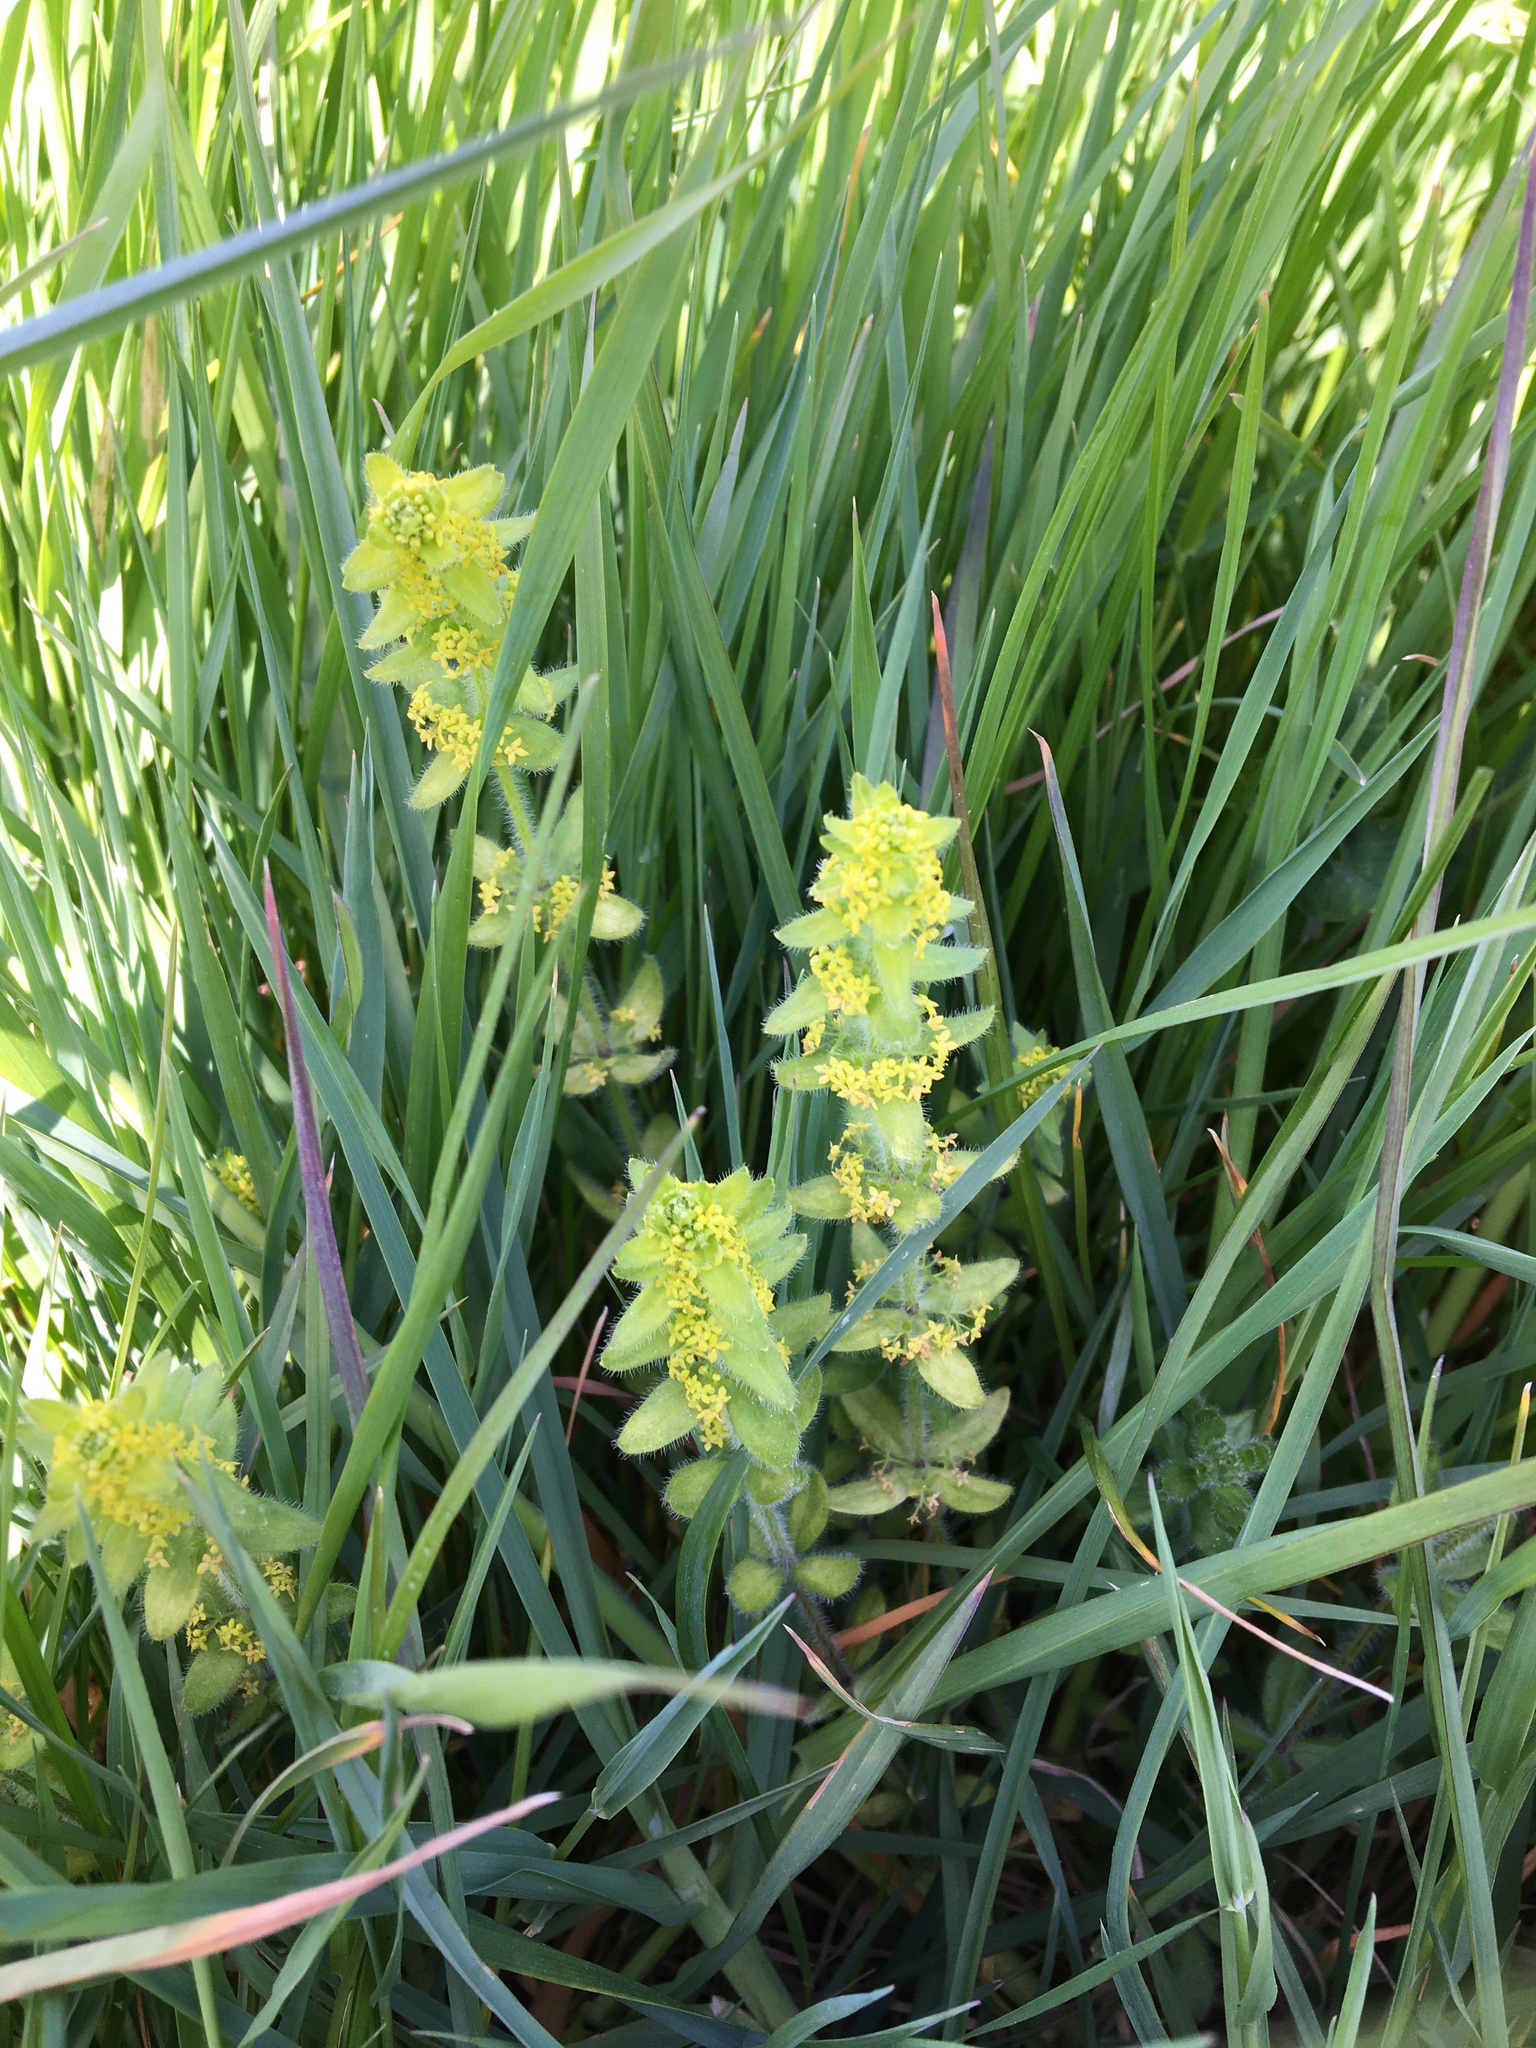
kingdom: Plantae
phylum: Tracheophyta
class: Magnoliopsida
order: Gentianales
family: Rubiaceae
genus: Cruciata
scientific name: Cruciata laevipes
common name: Crosswort
